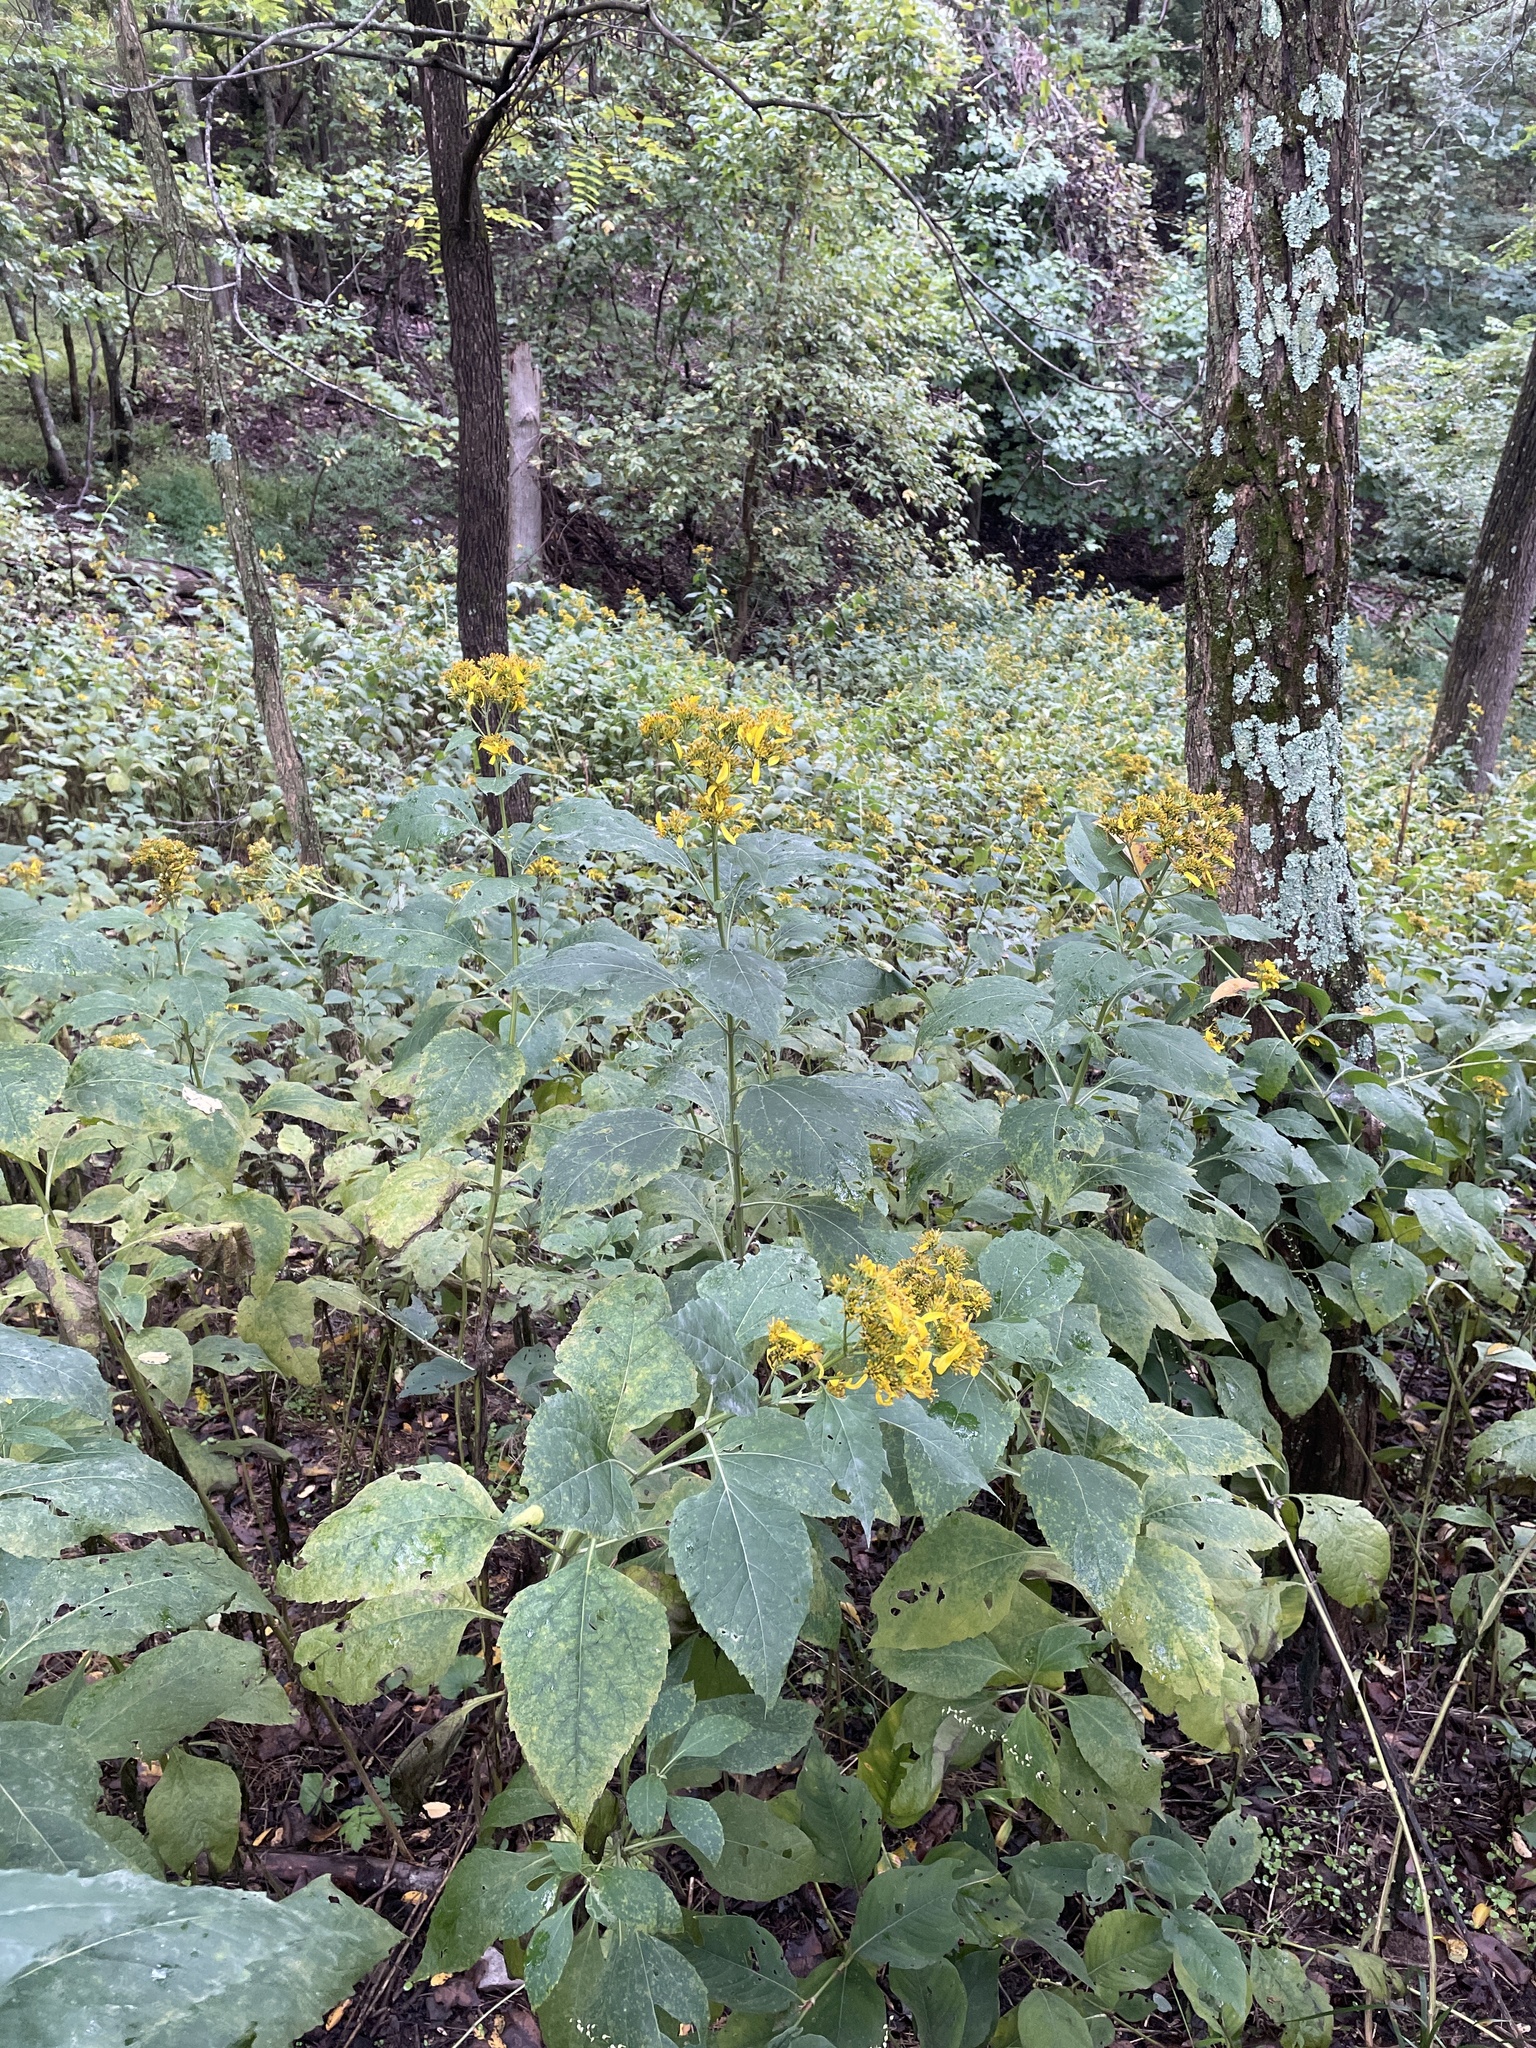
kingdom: Plantae
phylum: Tracheophyta
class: Magnoliopsida
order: Asterales
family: Asteraceae
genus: Verbesina
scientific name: Verbesina occidentalis
